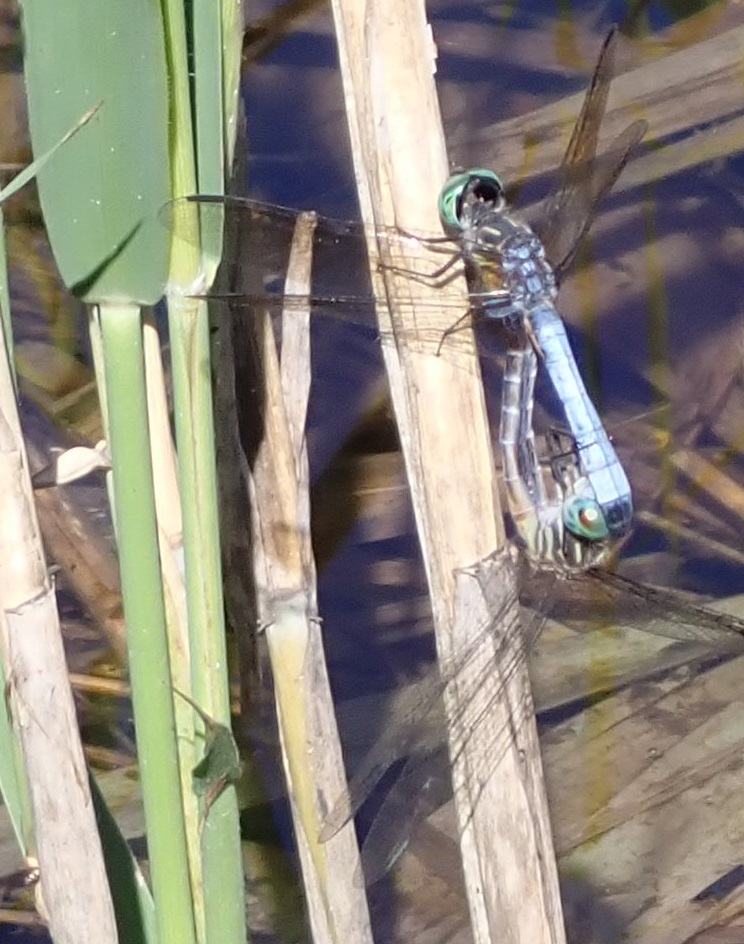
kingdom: Animalia
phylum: Arthropoda
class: Insecta
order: Odonata
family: Libellulidae
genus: Pachydiplax
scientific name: Pachydiplax longipennis
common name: Blue dasher
